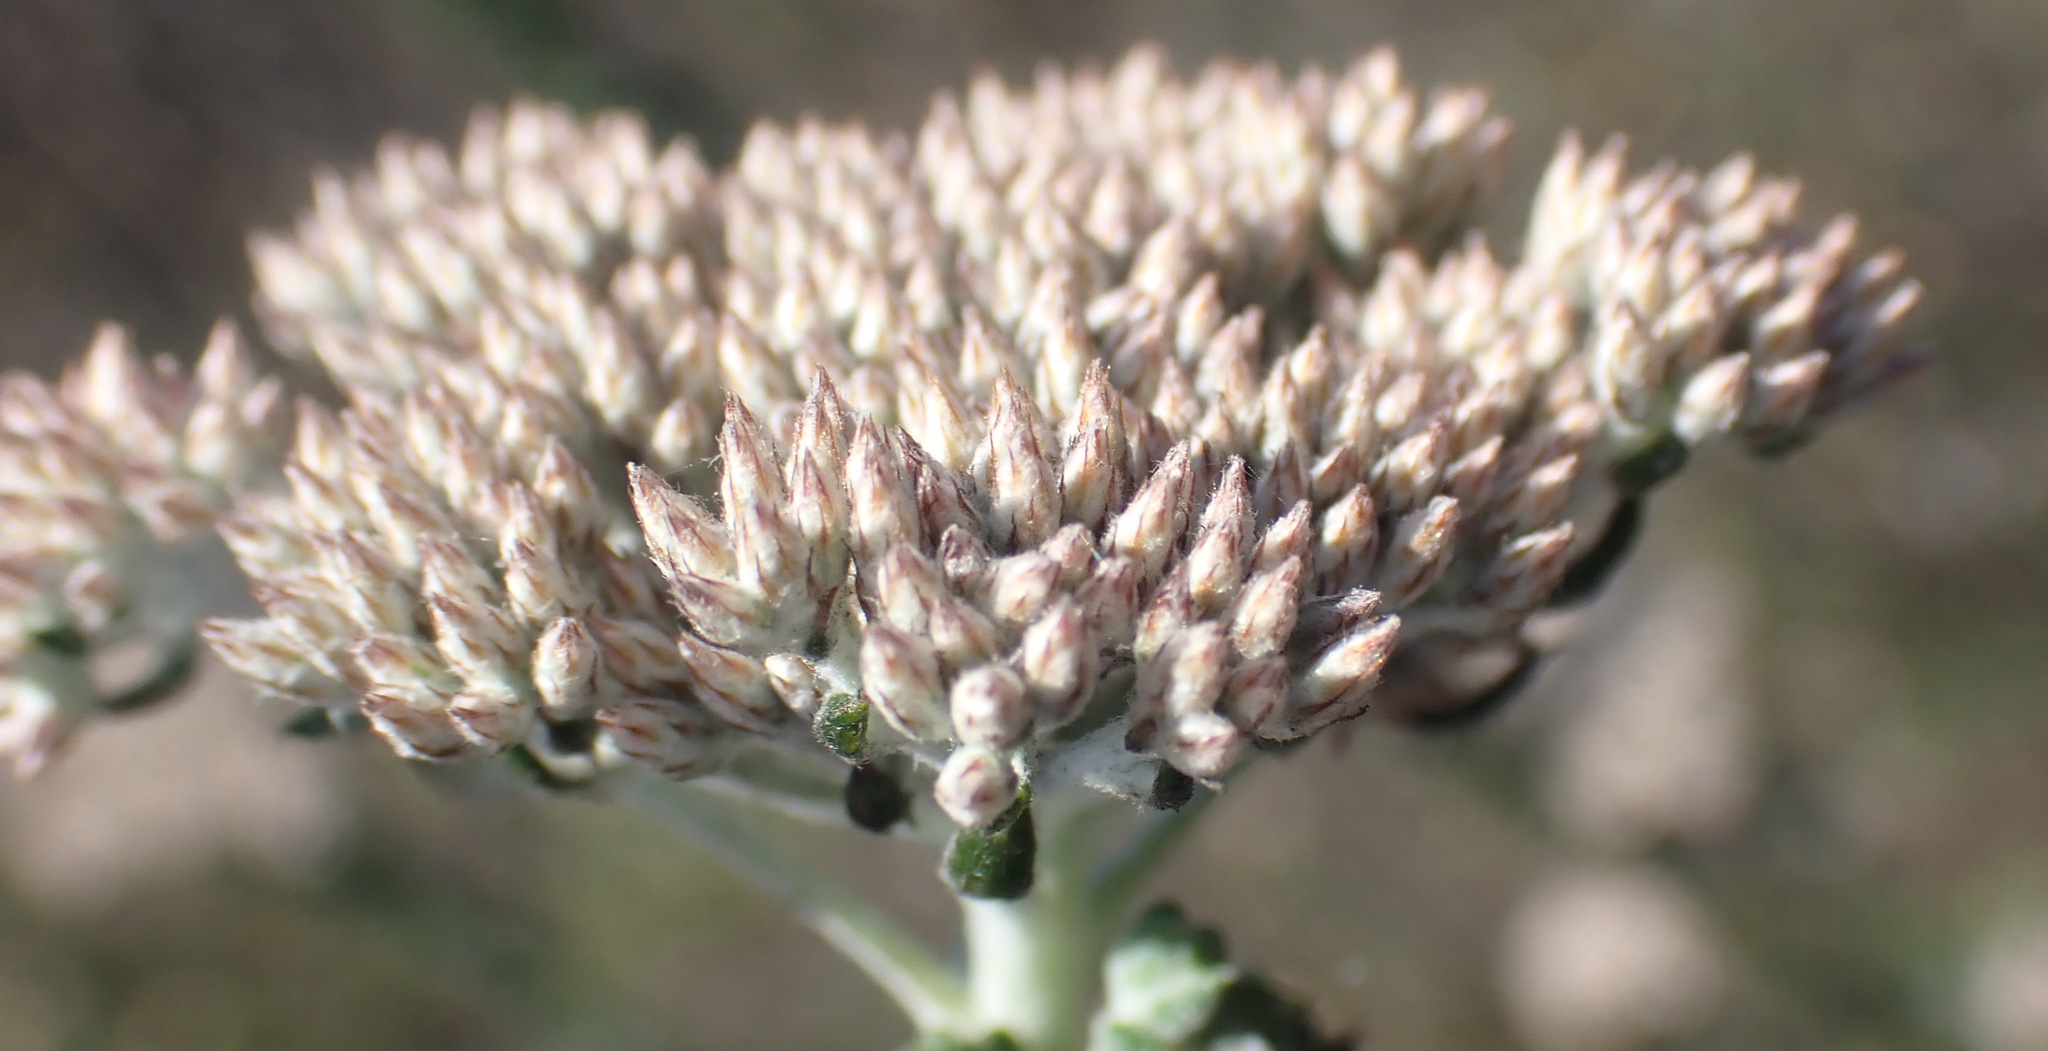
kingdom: Plantae
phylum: Tracheophyta
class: Magnoliopsida
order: Asterales
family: Asteraceae
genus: Metalasia
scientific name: Metalasia pungens
